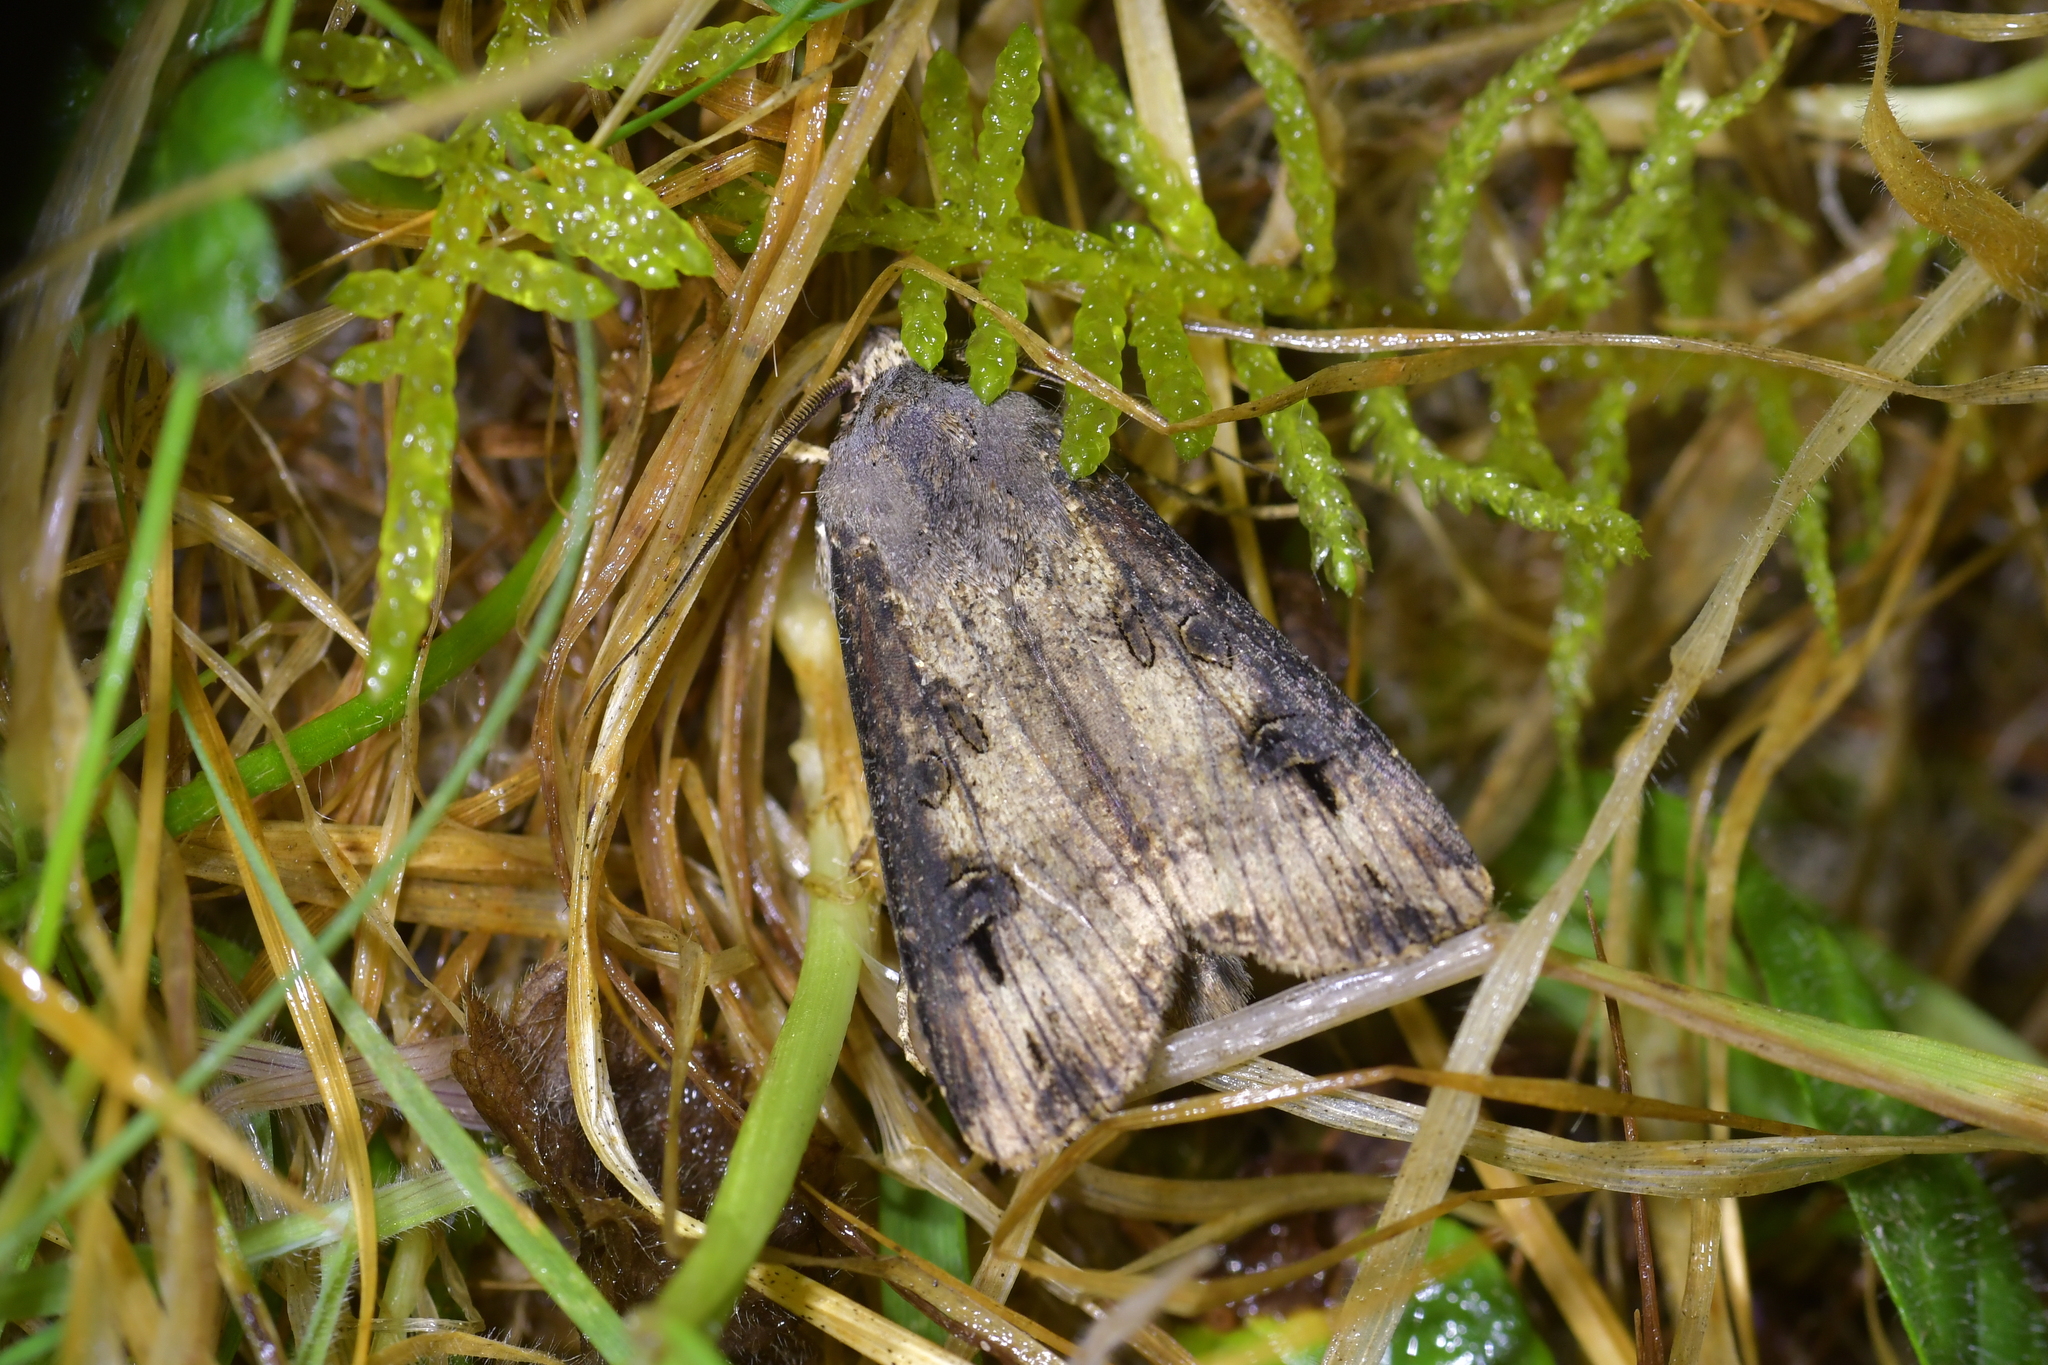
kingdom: Animalia
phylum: Arthropoda
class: Insecta
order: Lepidoptera
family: Noctuidae
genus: Agrotis
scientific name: Agrotis ipsilon
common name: Dark sword-grass
